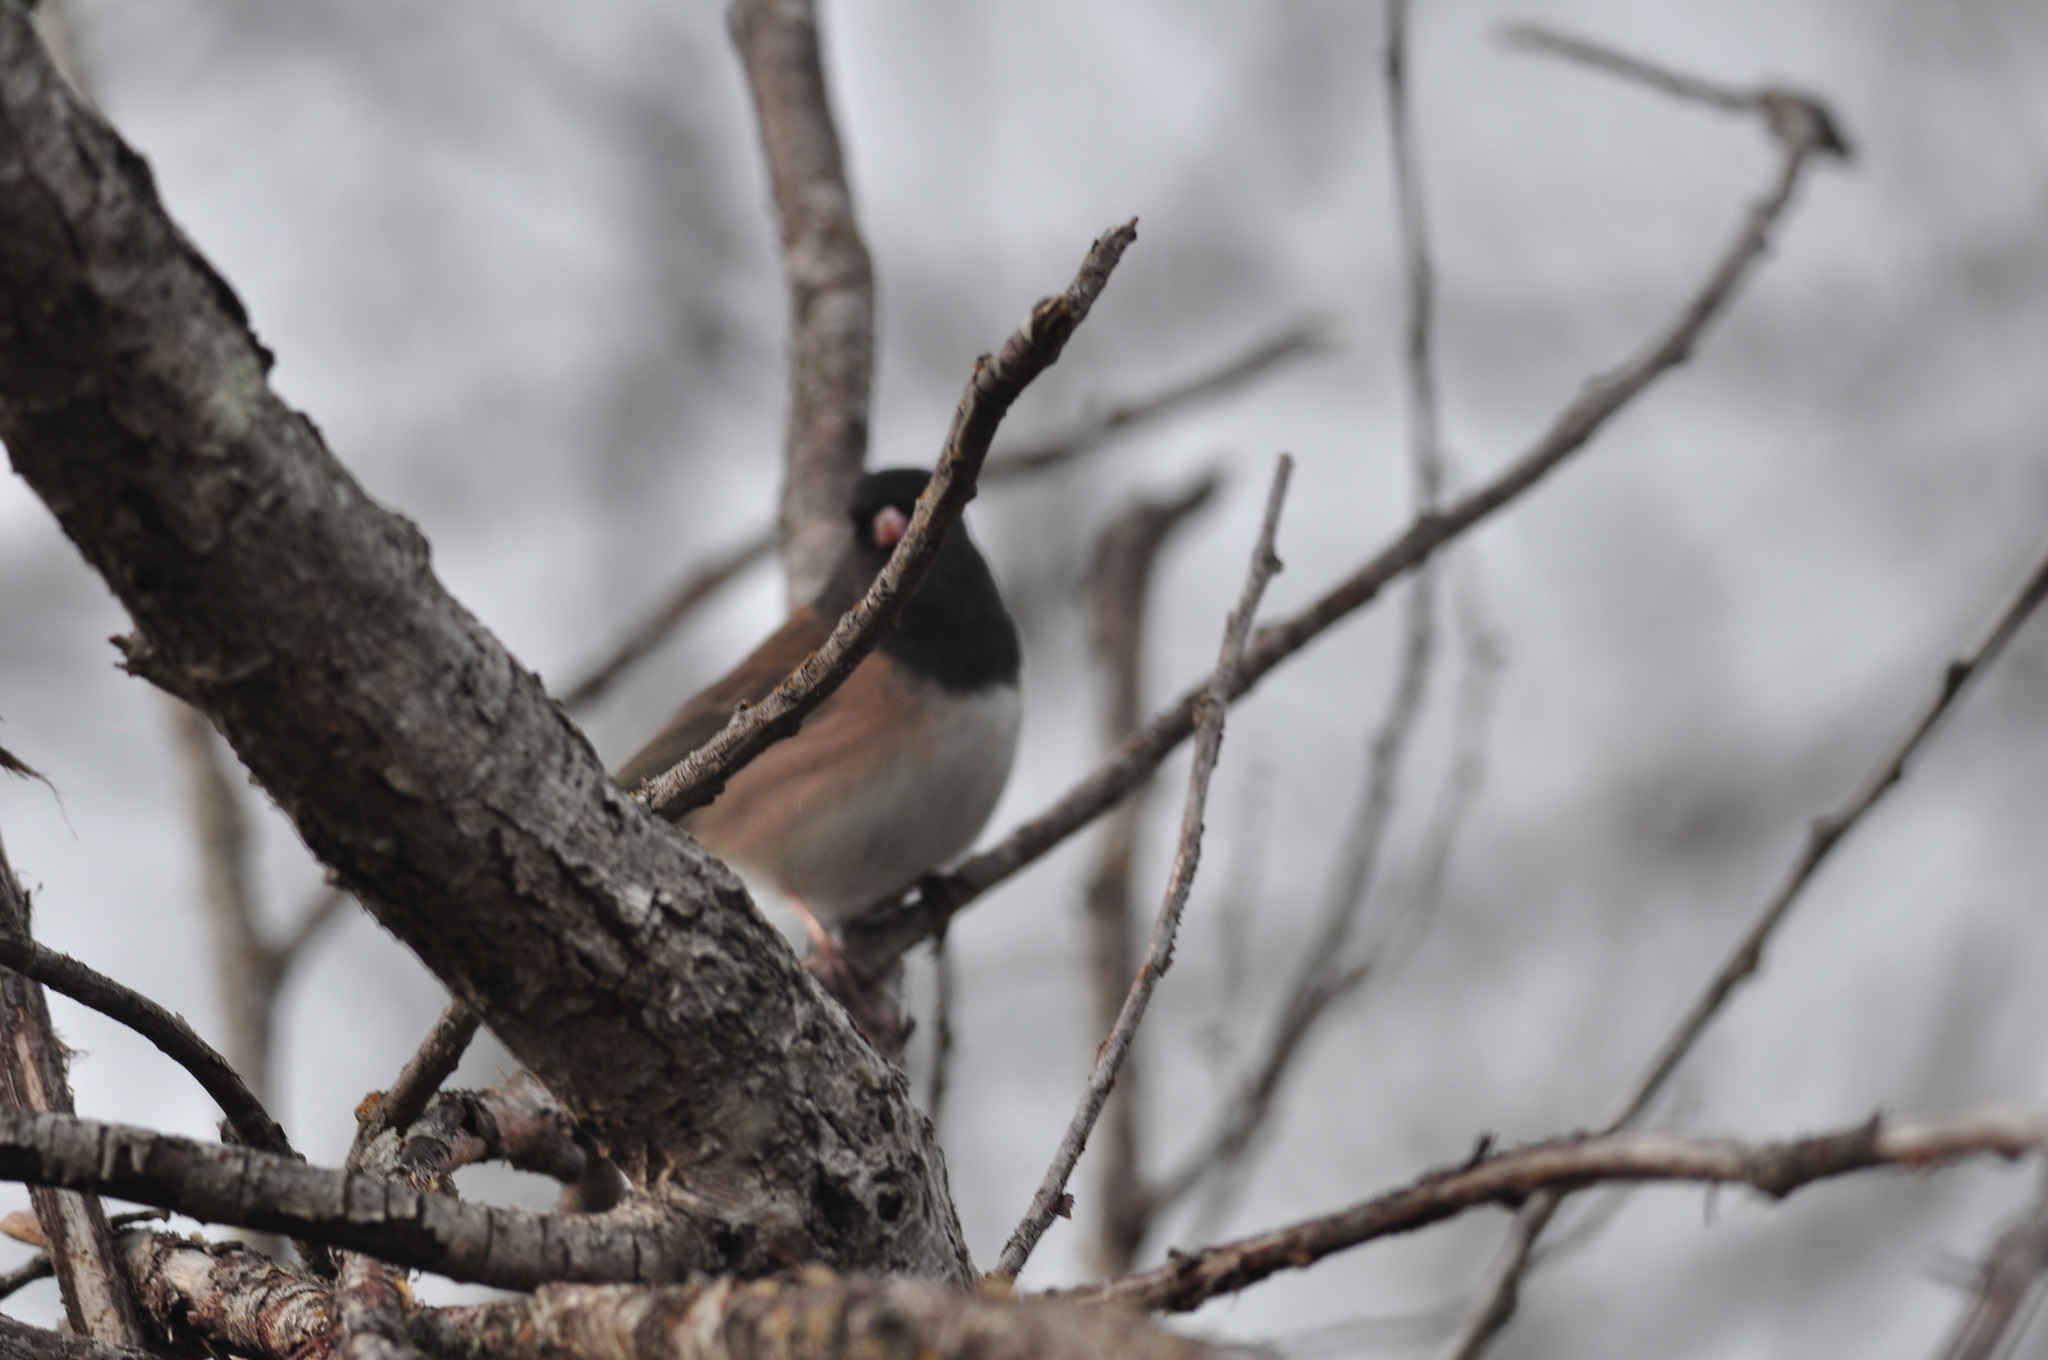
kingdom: Animalia
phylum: Chordata
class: Aves
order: Passeriformes
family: Passerellidae
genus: Junco
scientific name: Junco hyemalis
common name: Dark-eyed junco
